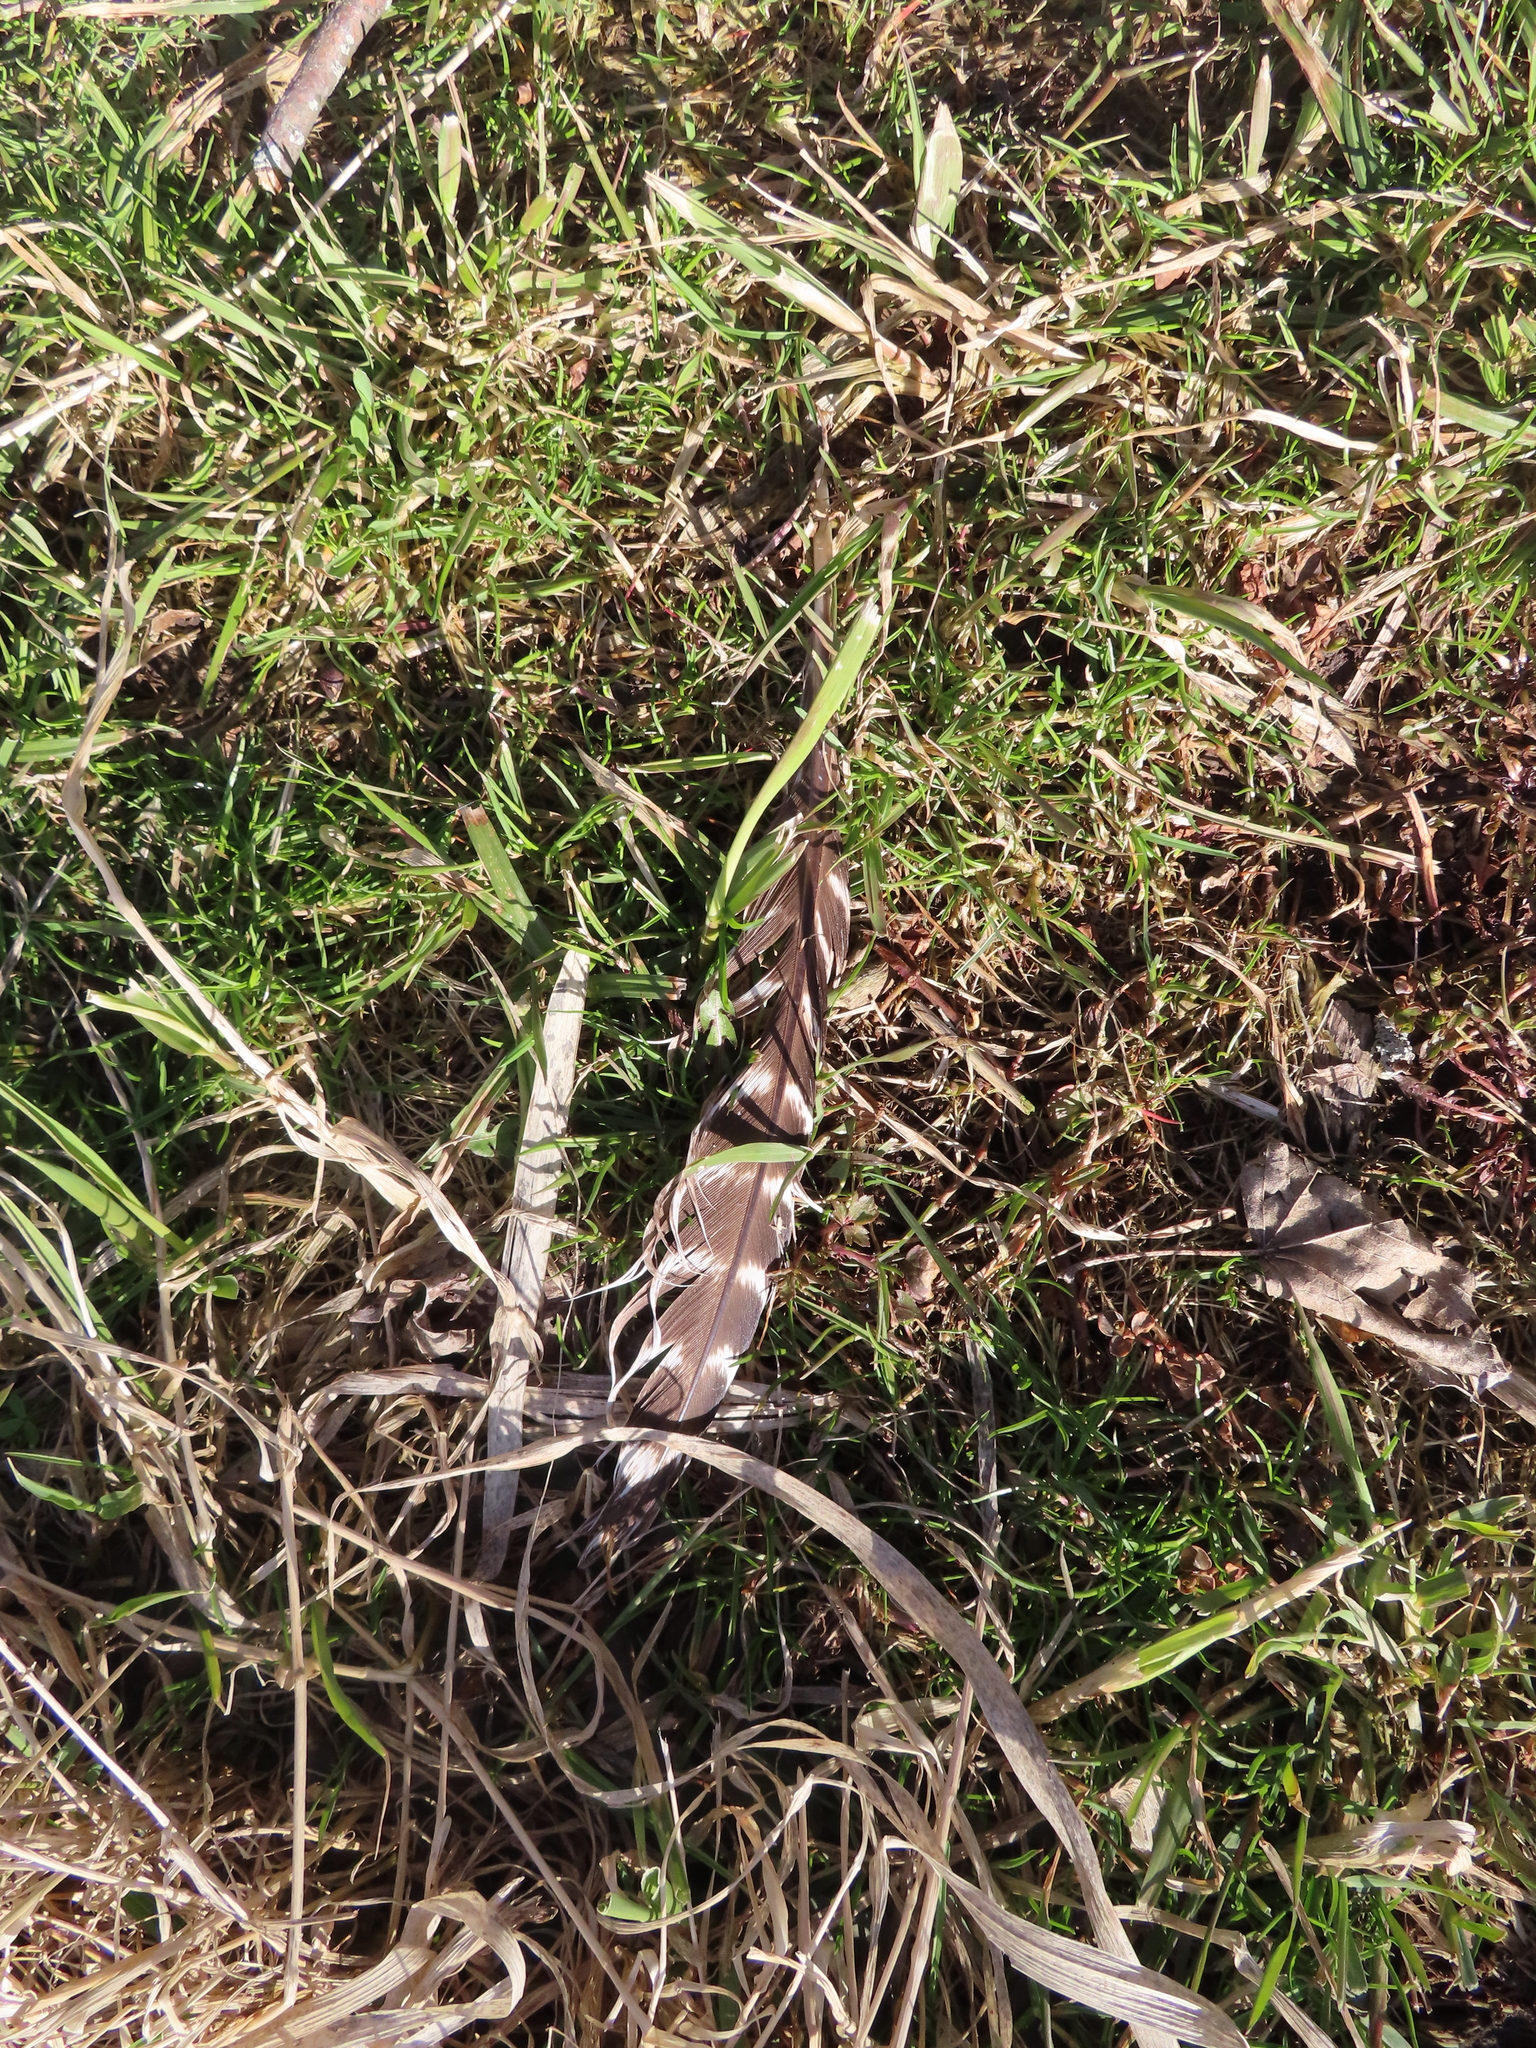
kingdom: Animalia
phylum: Chordata
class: Aves
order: Galliformes
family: Phasianidae
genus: Meleagris
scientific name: Meleagris gallopavo
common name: Wild turkey
